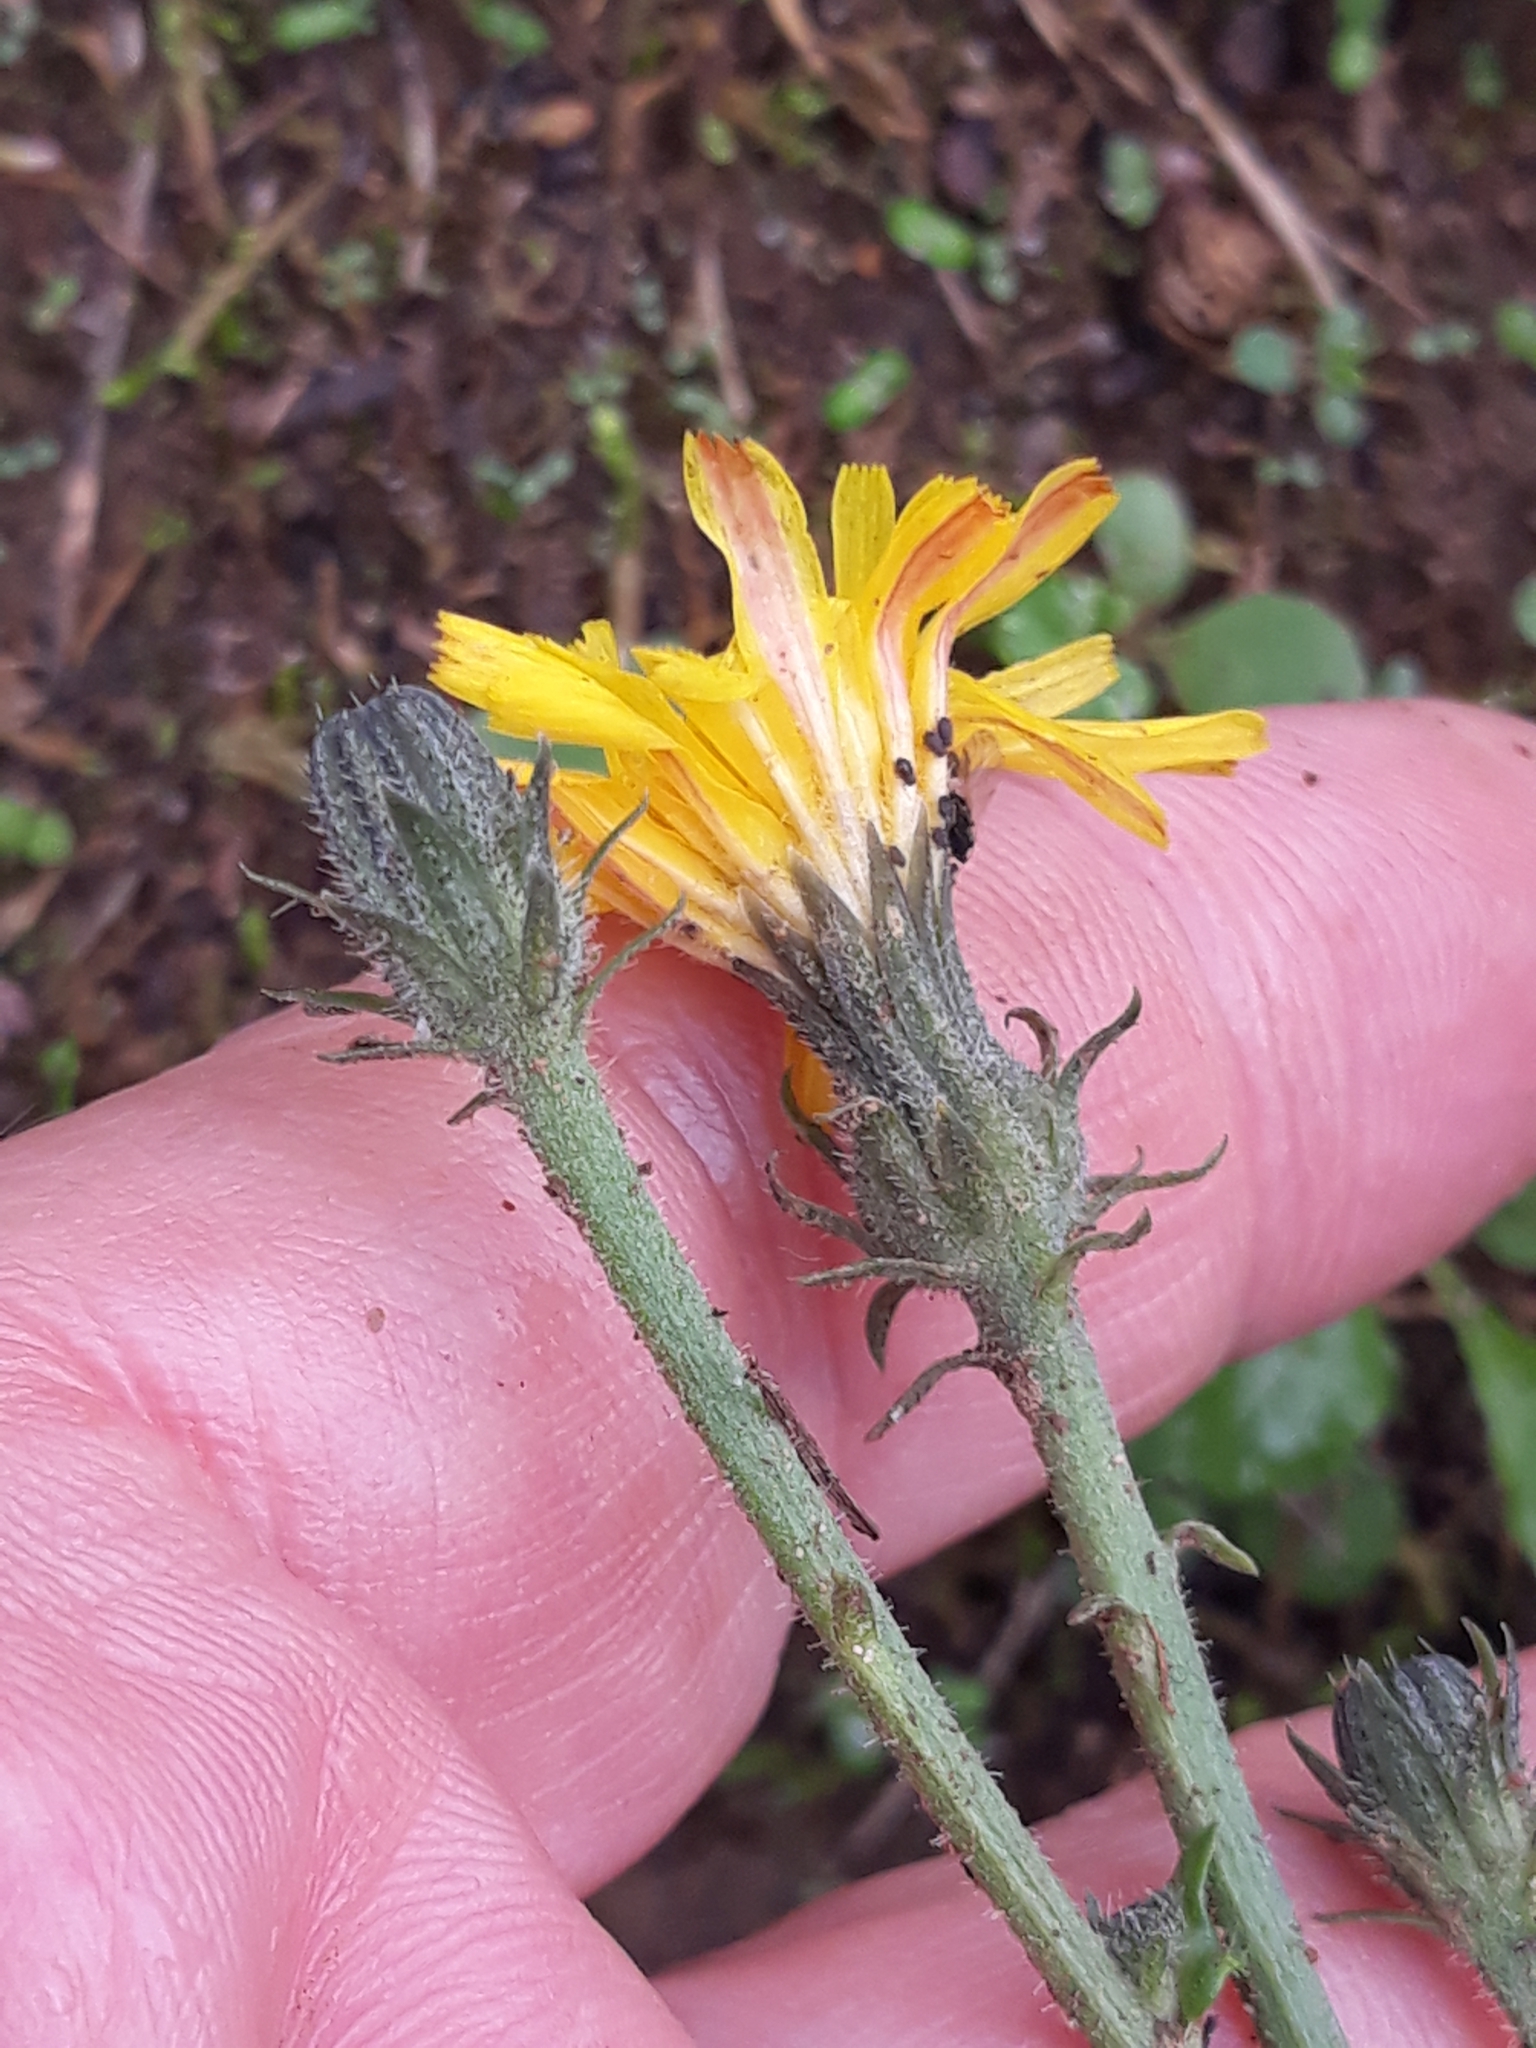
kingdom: Plantae
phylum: Tracheophyta
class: Magnoliopsida
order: Asterales
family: Asteraceae
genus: Picris
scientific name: Picris hieracioides
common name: Hawkweed oxtongue
